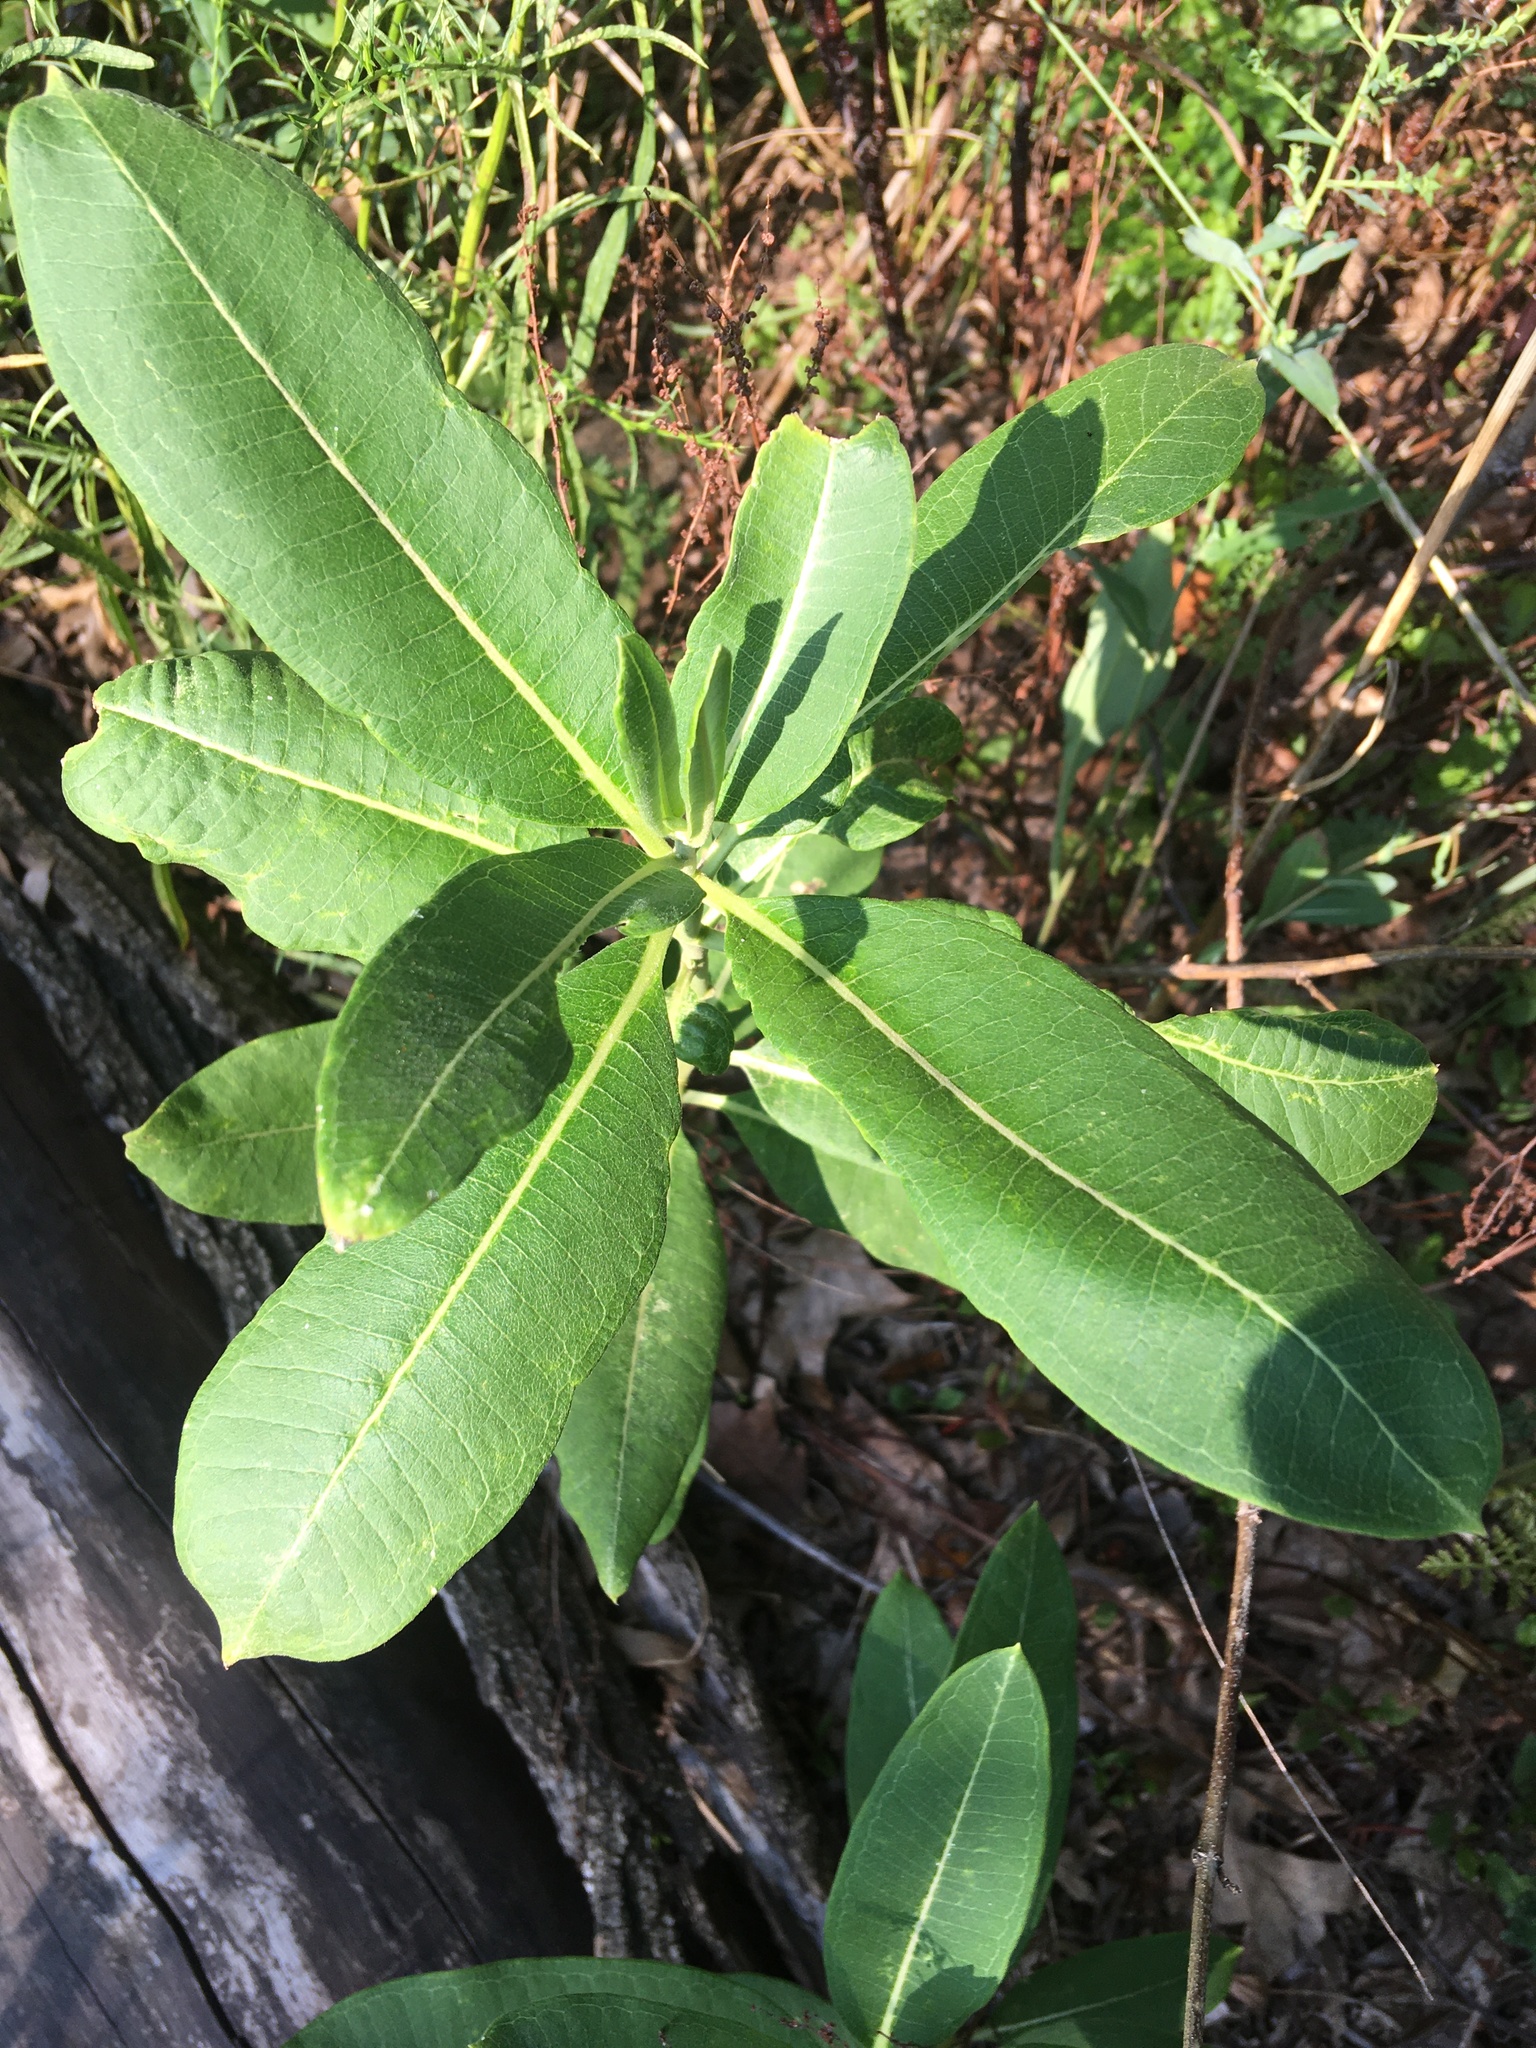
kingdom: Plantae
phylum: Tracheophyta
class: Magnoliopsida
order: Gentianales
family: Apocynaceae
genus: Asclepias
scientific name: Asclepias syriaca
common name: Common milkweed
